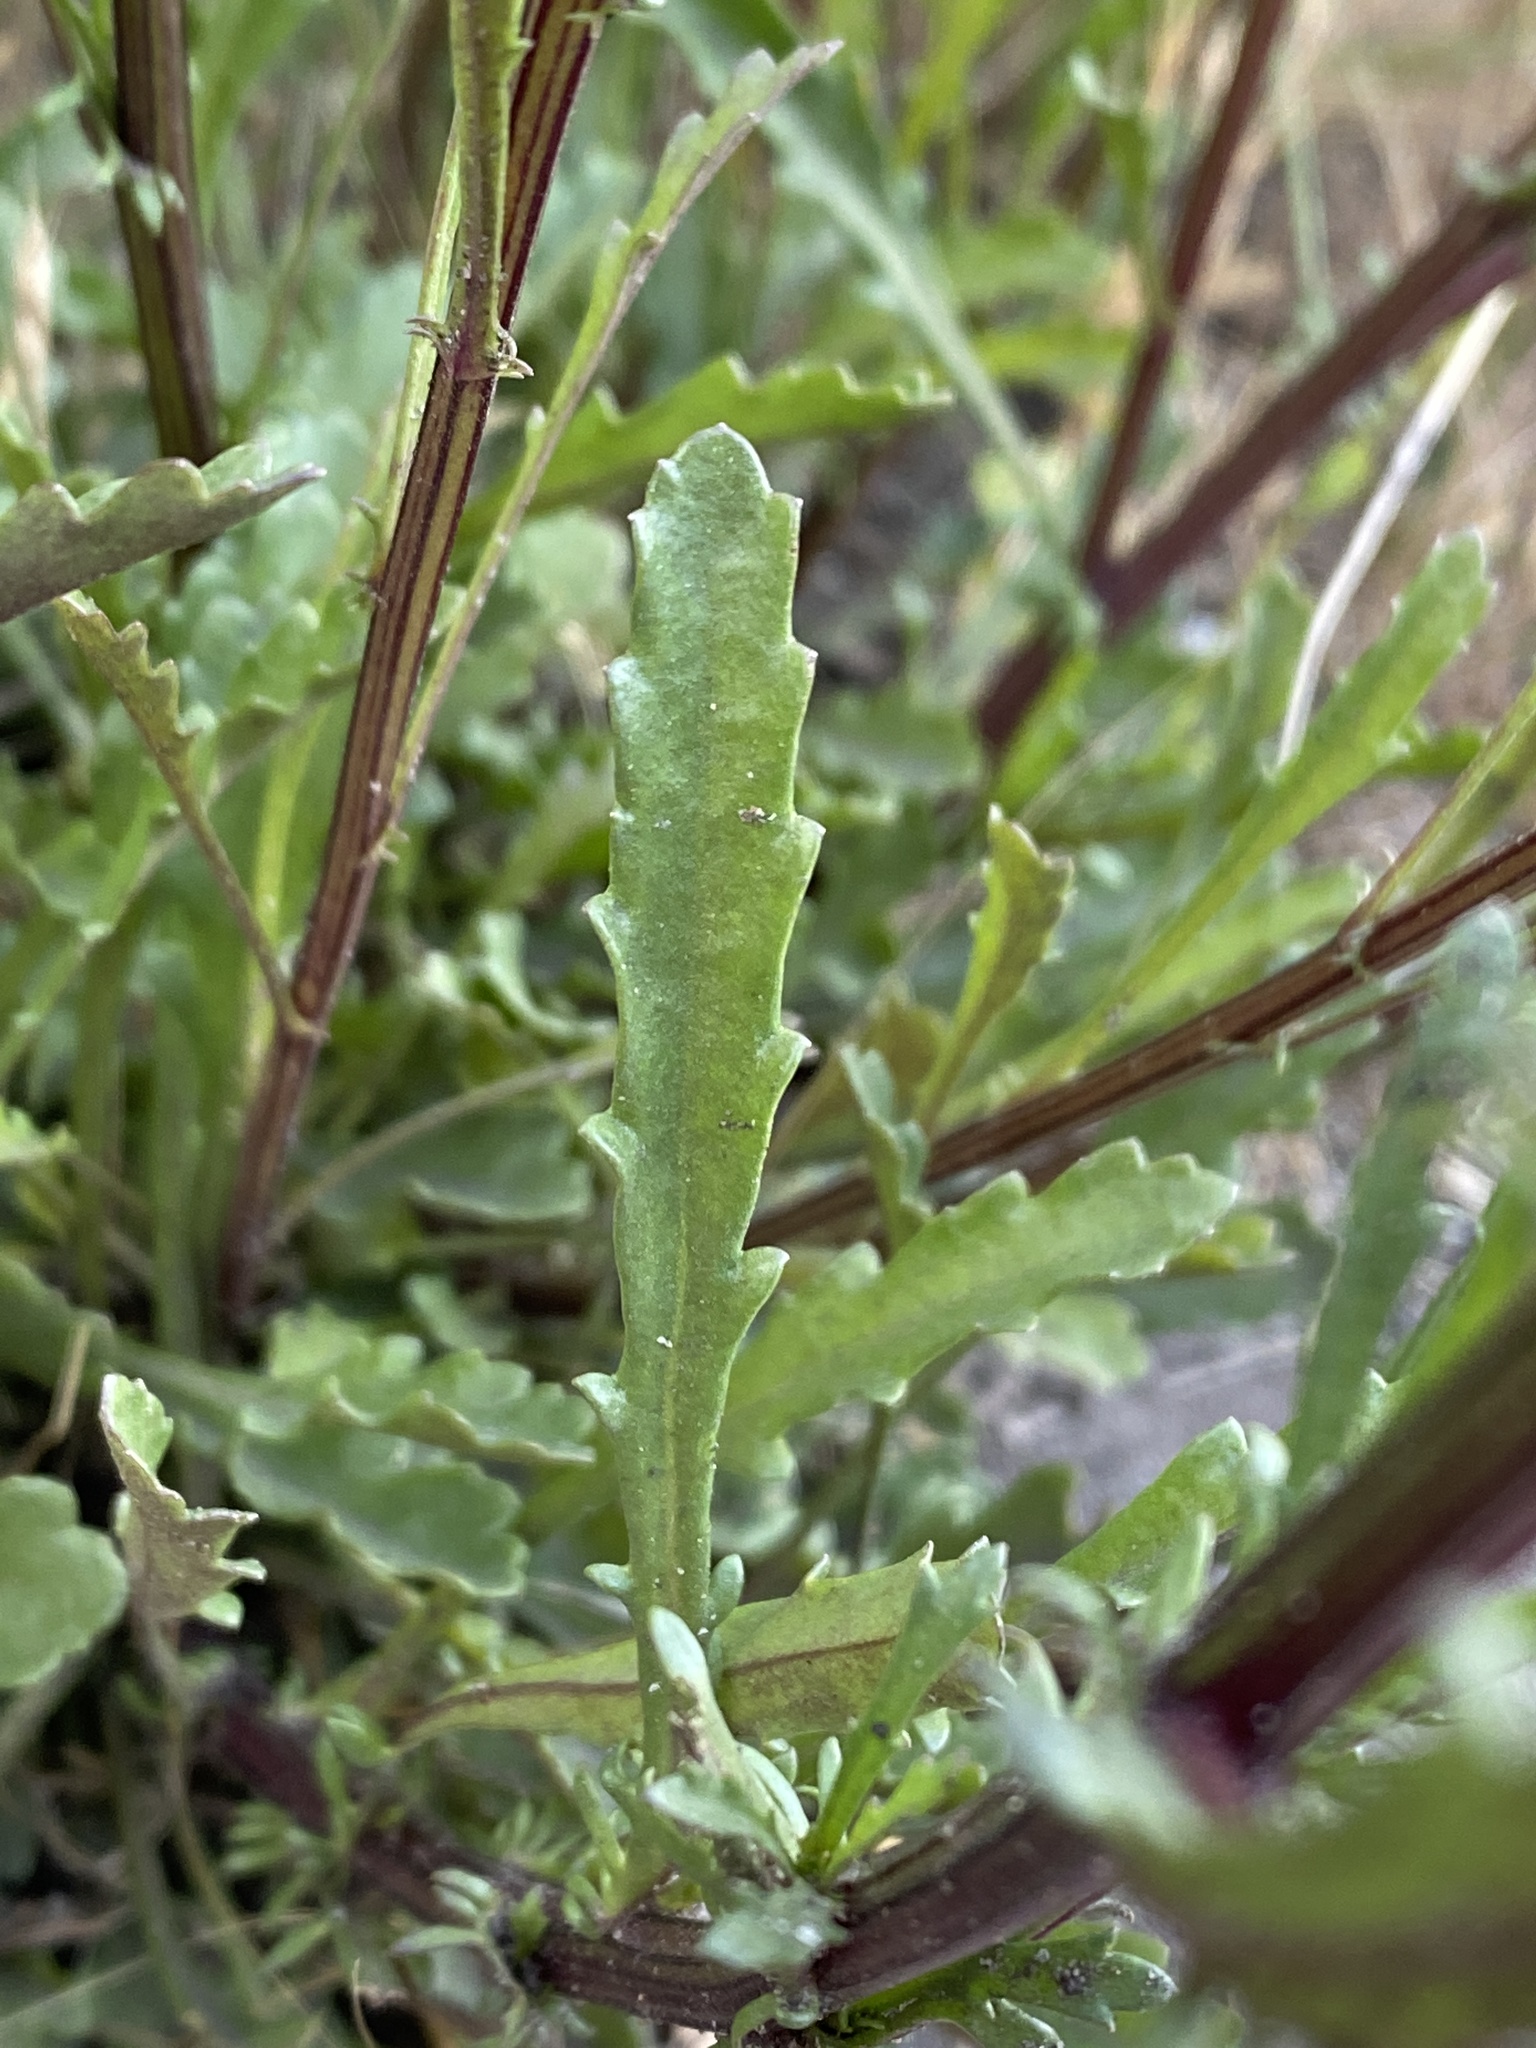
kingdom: Plantae
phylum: Tracheophyta
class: Magnoliopsida
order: Asterales
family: Asteraceae
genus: Leucanthemum
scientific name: Leucanthemum vulgare
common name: Oxeye daisy
